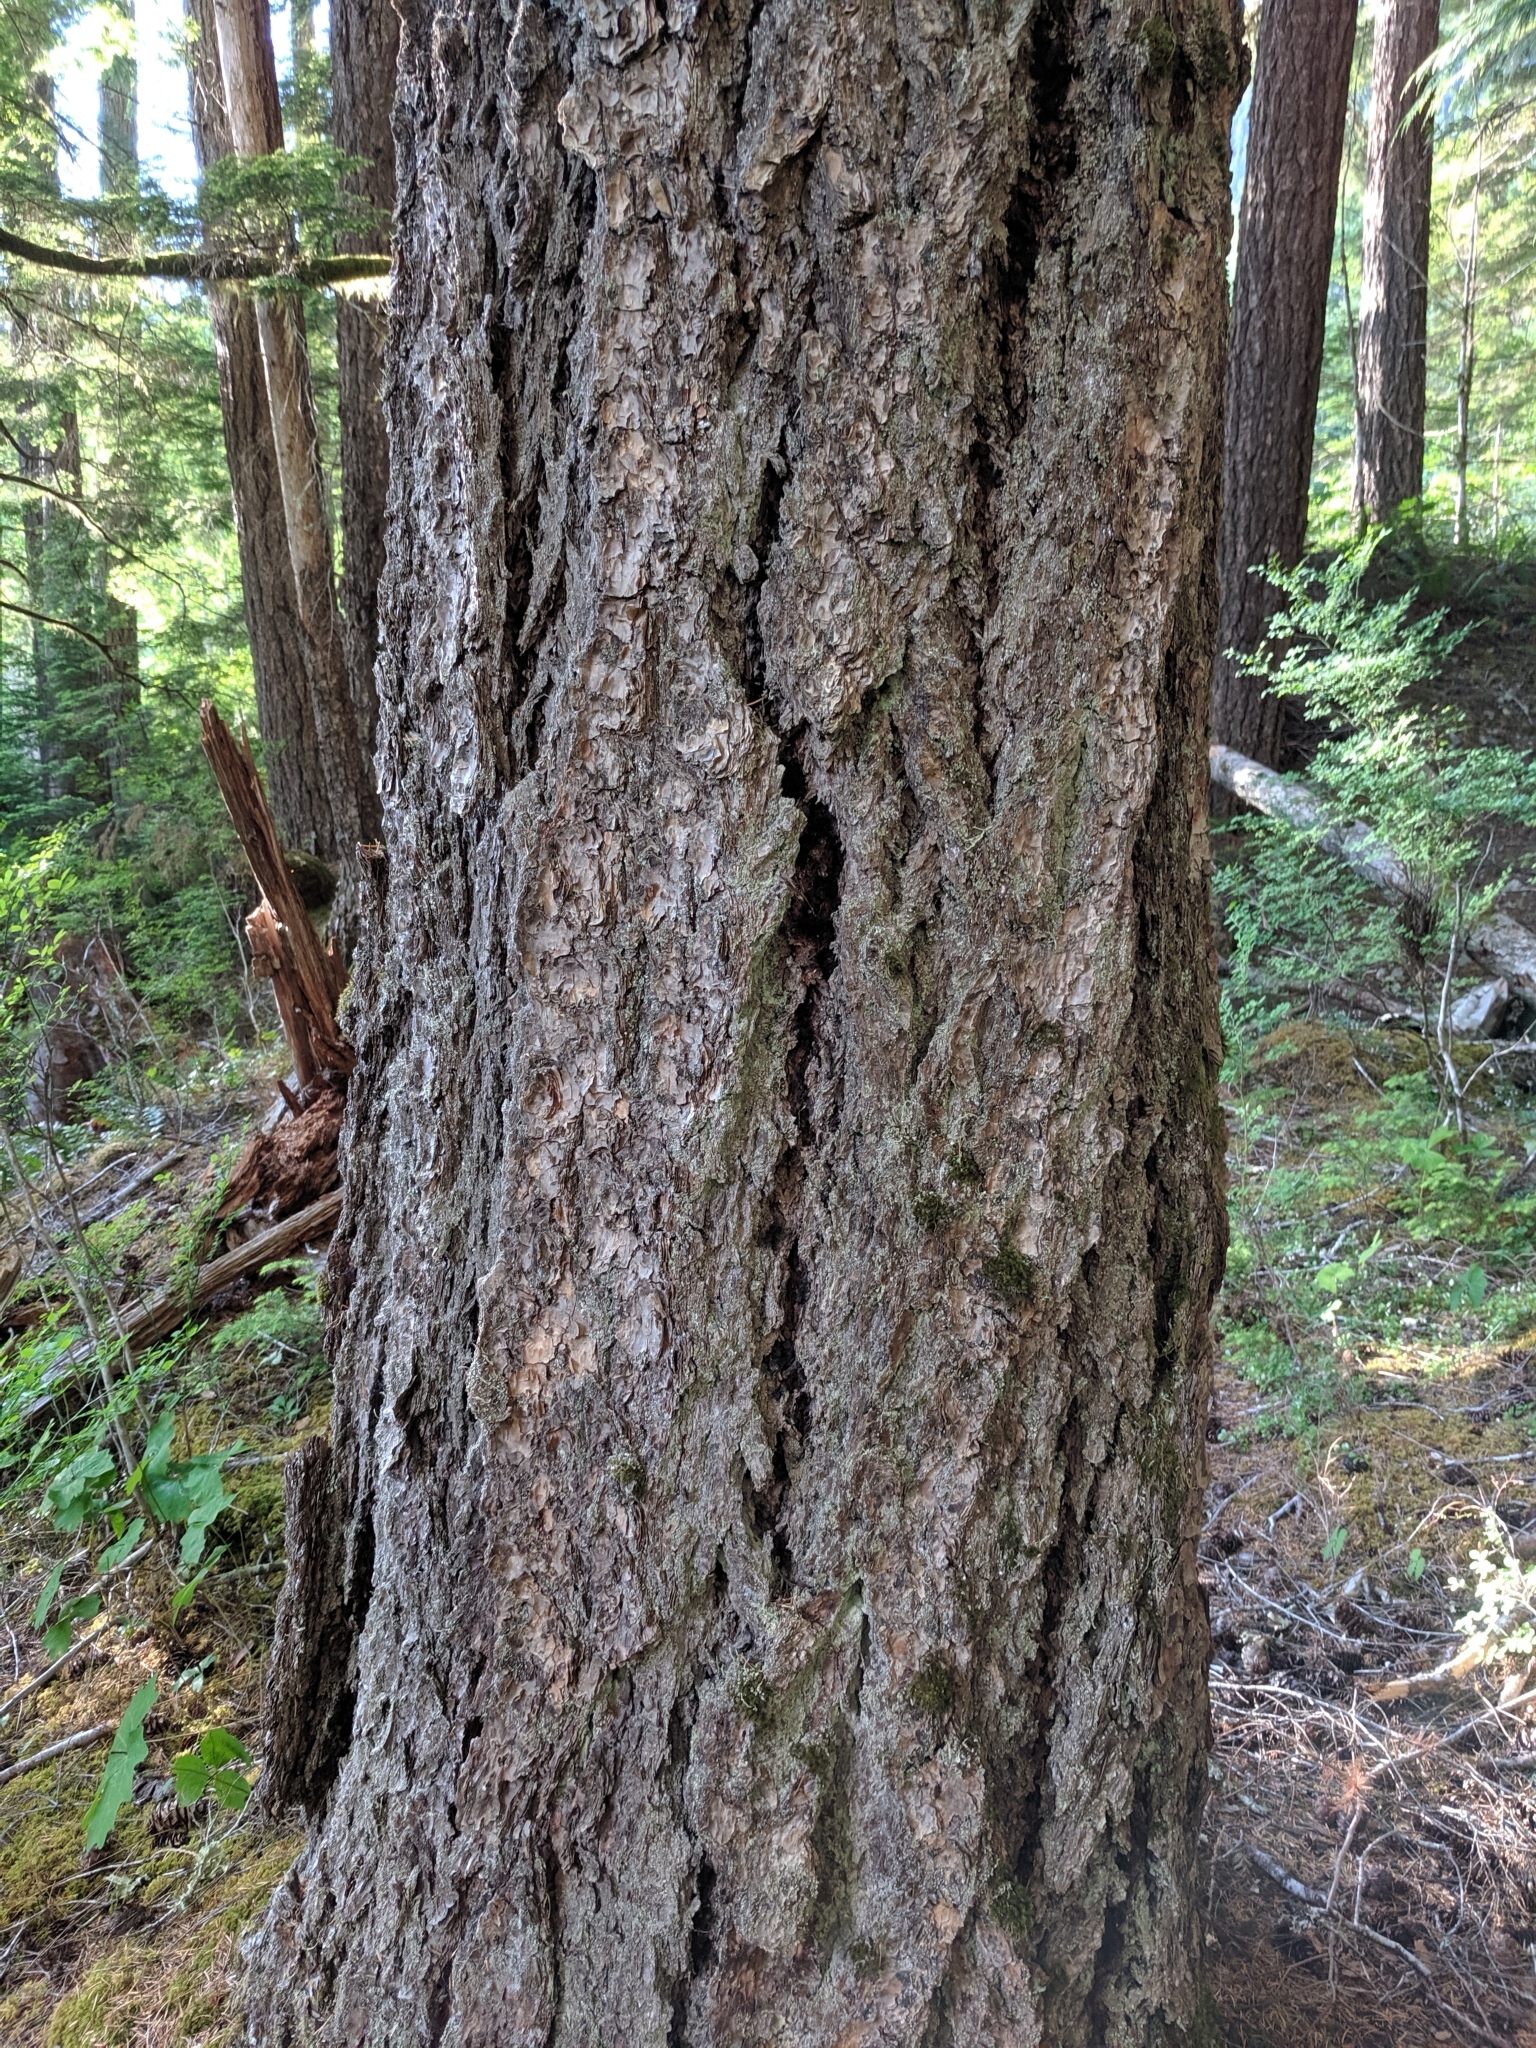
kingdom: Plantae
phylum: Tracheophyta
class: Pinopsida
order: Pinales
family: Pinaceae
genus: Pseudotsuga
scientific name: Pseudotsuga menziesii
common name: Douglas fir
